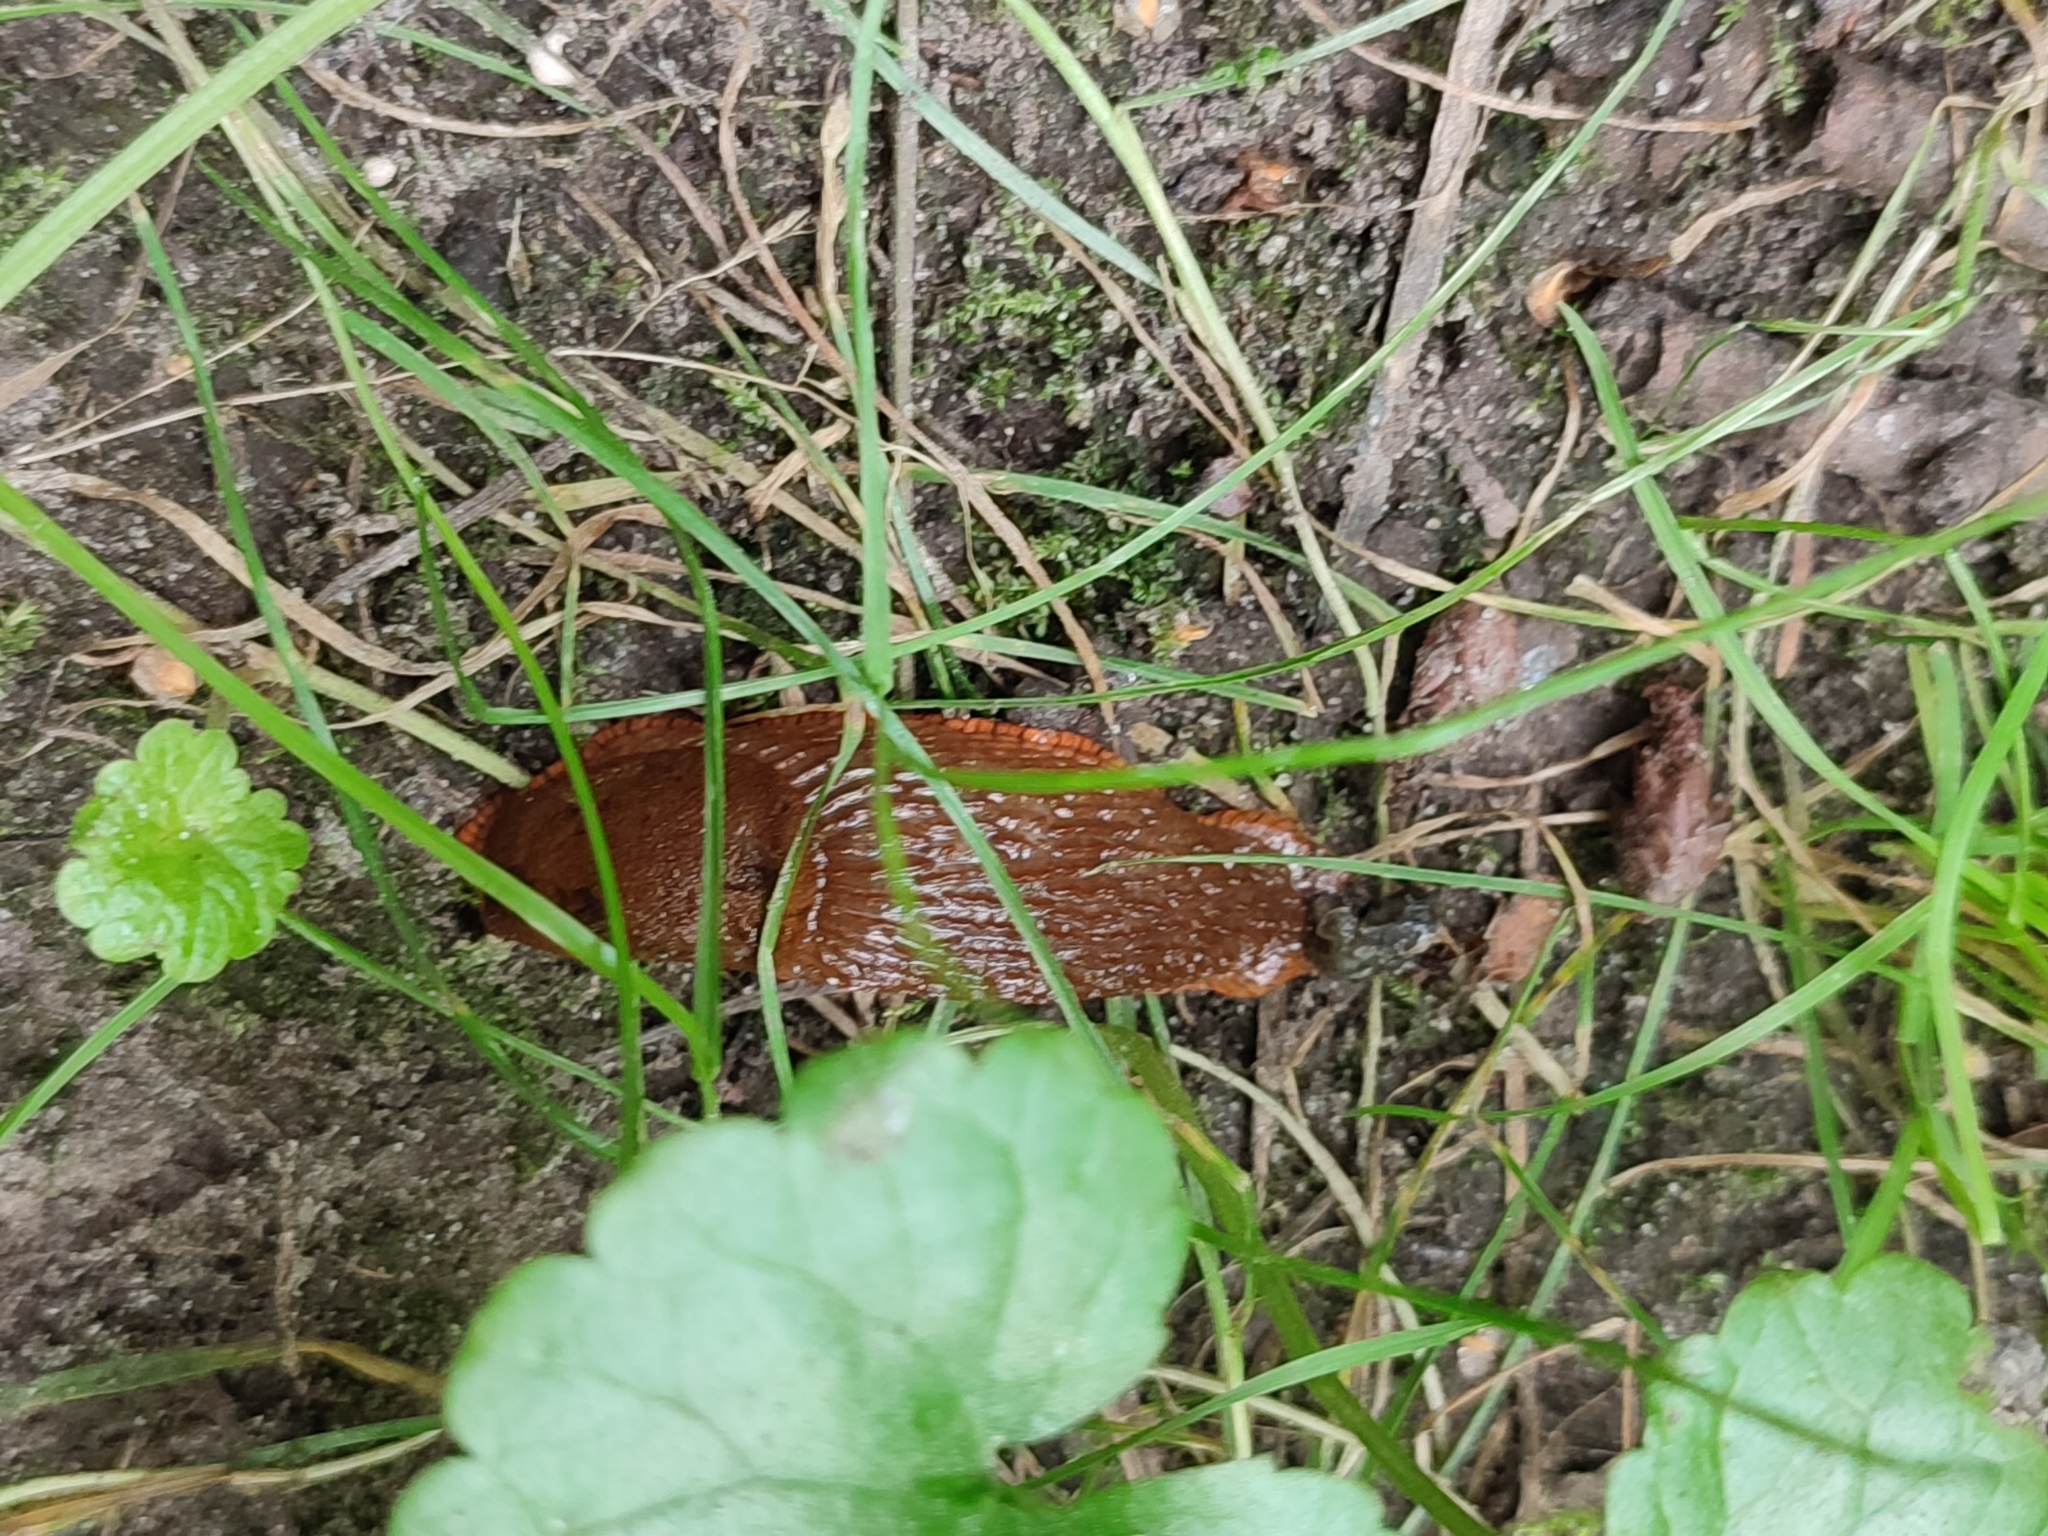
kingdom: Animalia
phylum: Mollusca
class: Gastropoda
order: Stylommatophora
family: Arionidae
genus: Arion
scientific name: Arion vulgaris
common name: Lusitanian slug
